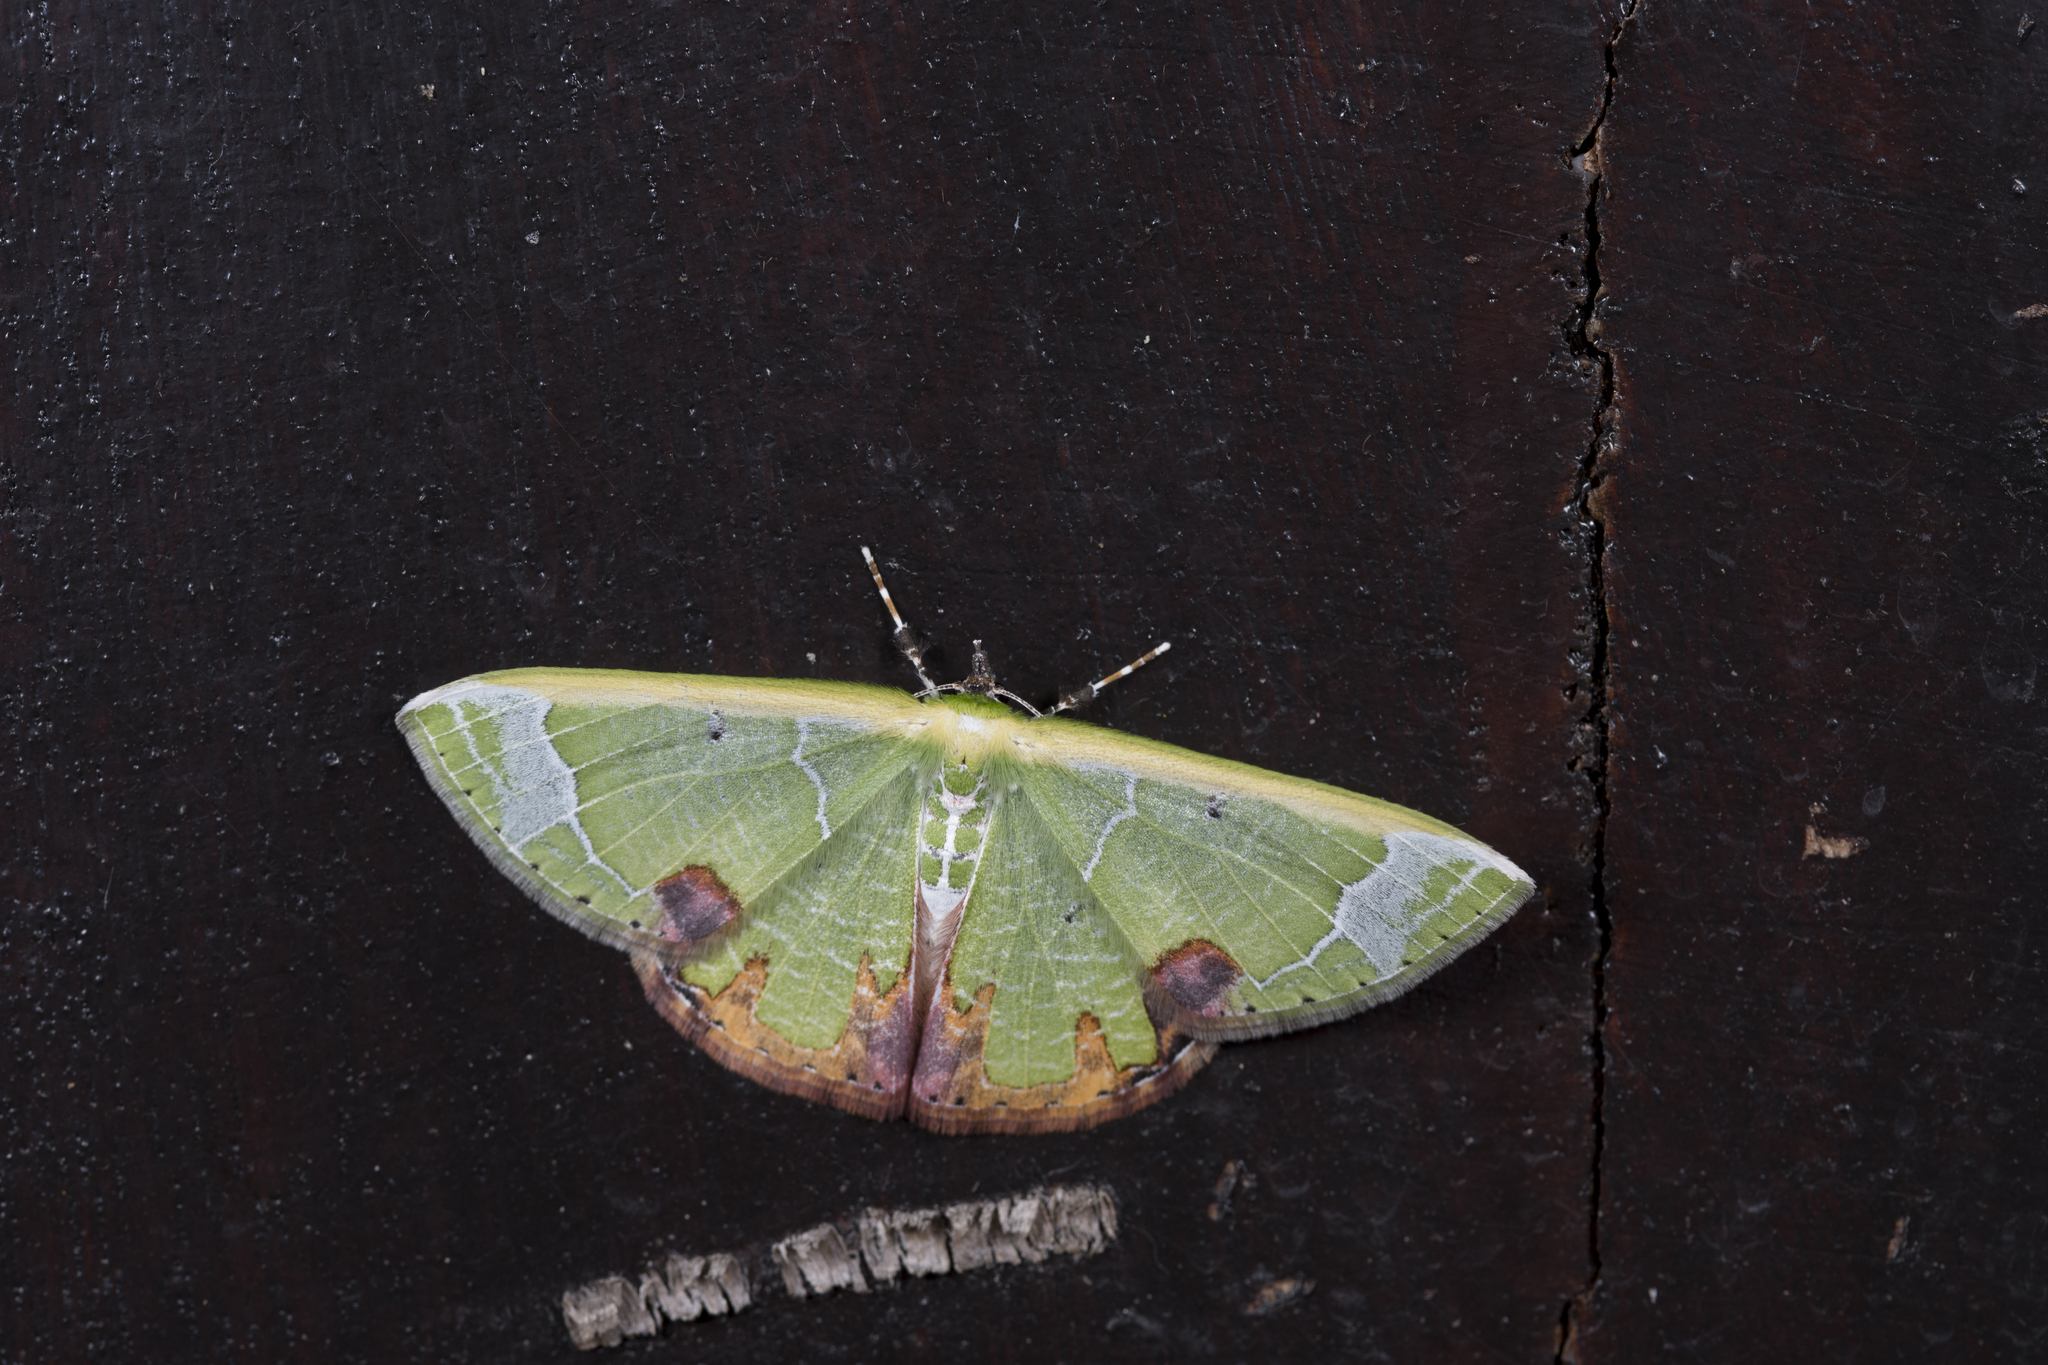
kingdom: Animalia
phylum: Arthropoda
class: Insecta
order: Lepidoptera
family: Geometridae
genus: Comibaena
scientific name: Comibaena pictipennis
